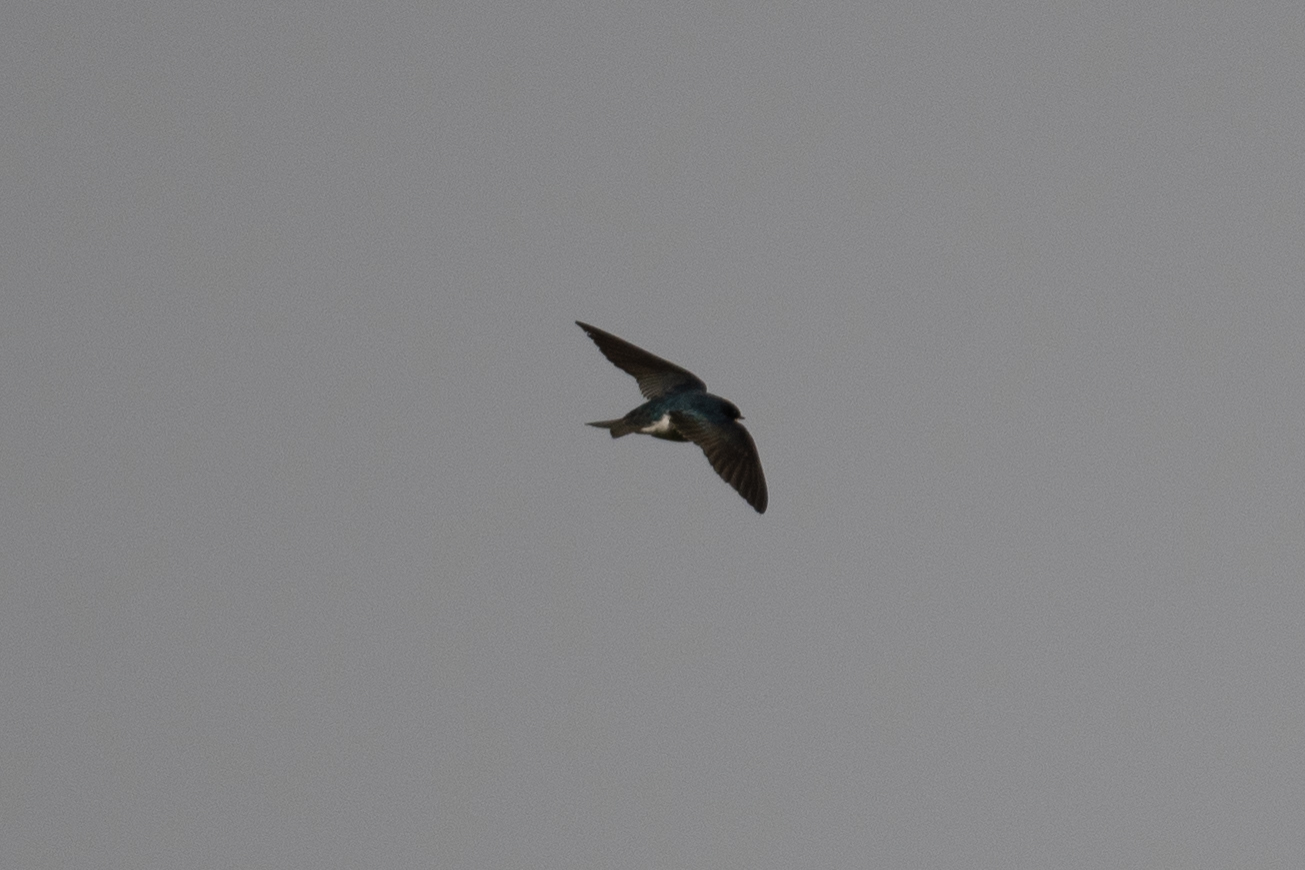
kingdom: Animalia
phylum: Chordata
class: Aves
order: Passeriformes
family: Hirundinidae
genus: Tachycineta
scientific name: Tachycineta bicolor
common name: Tree swallow
